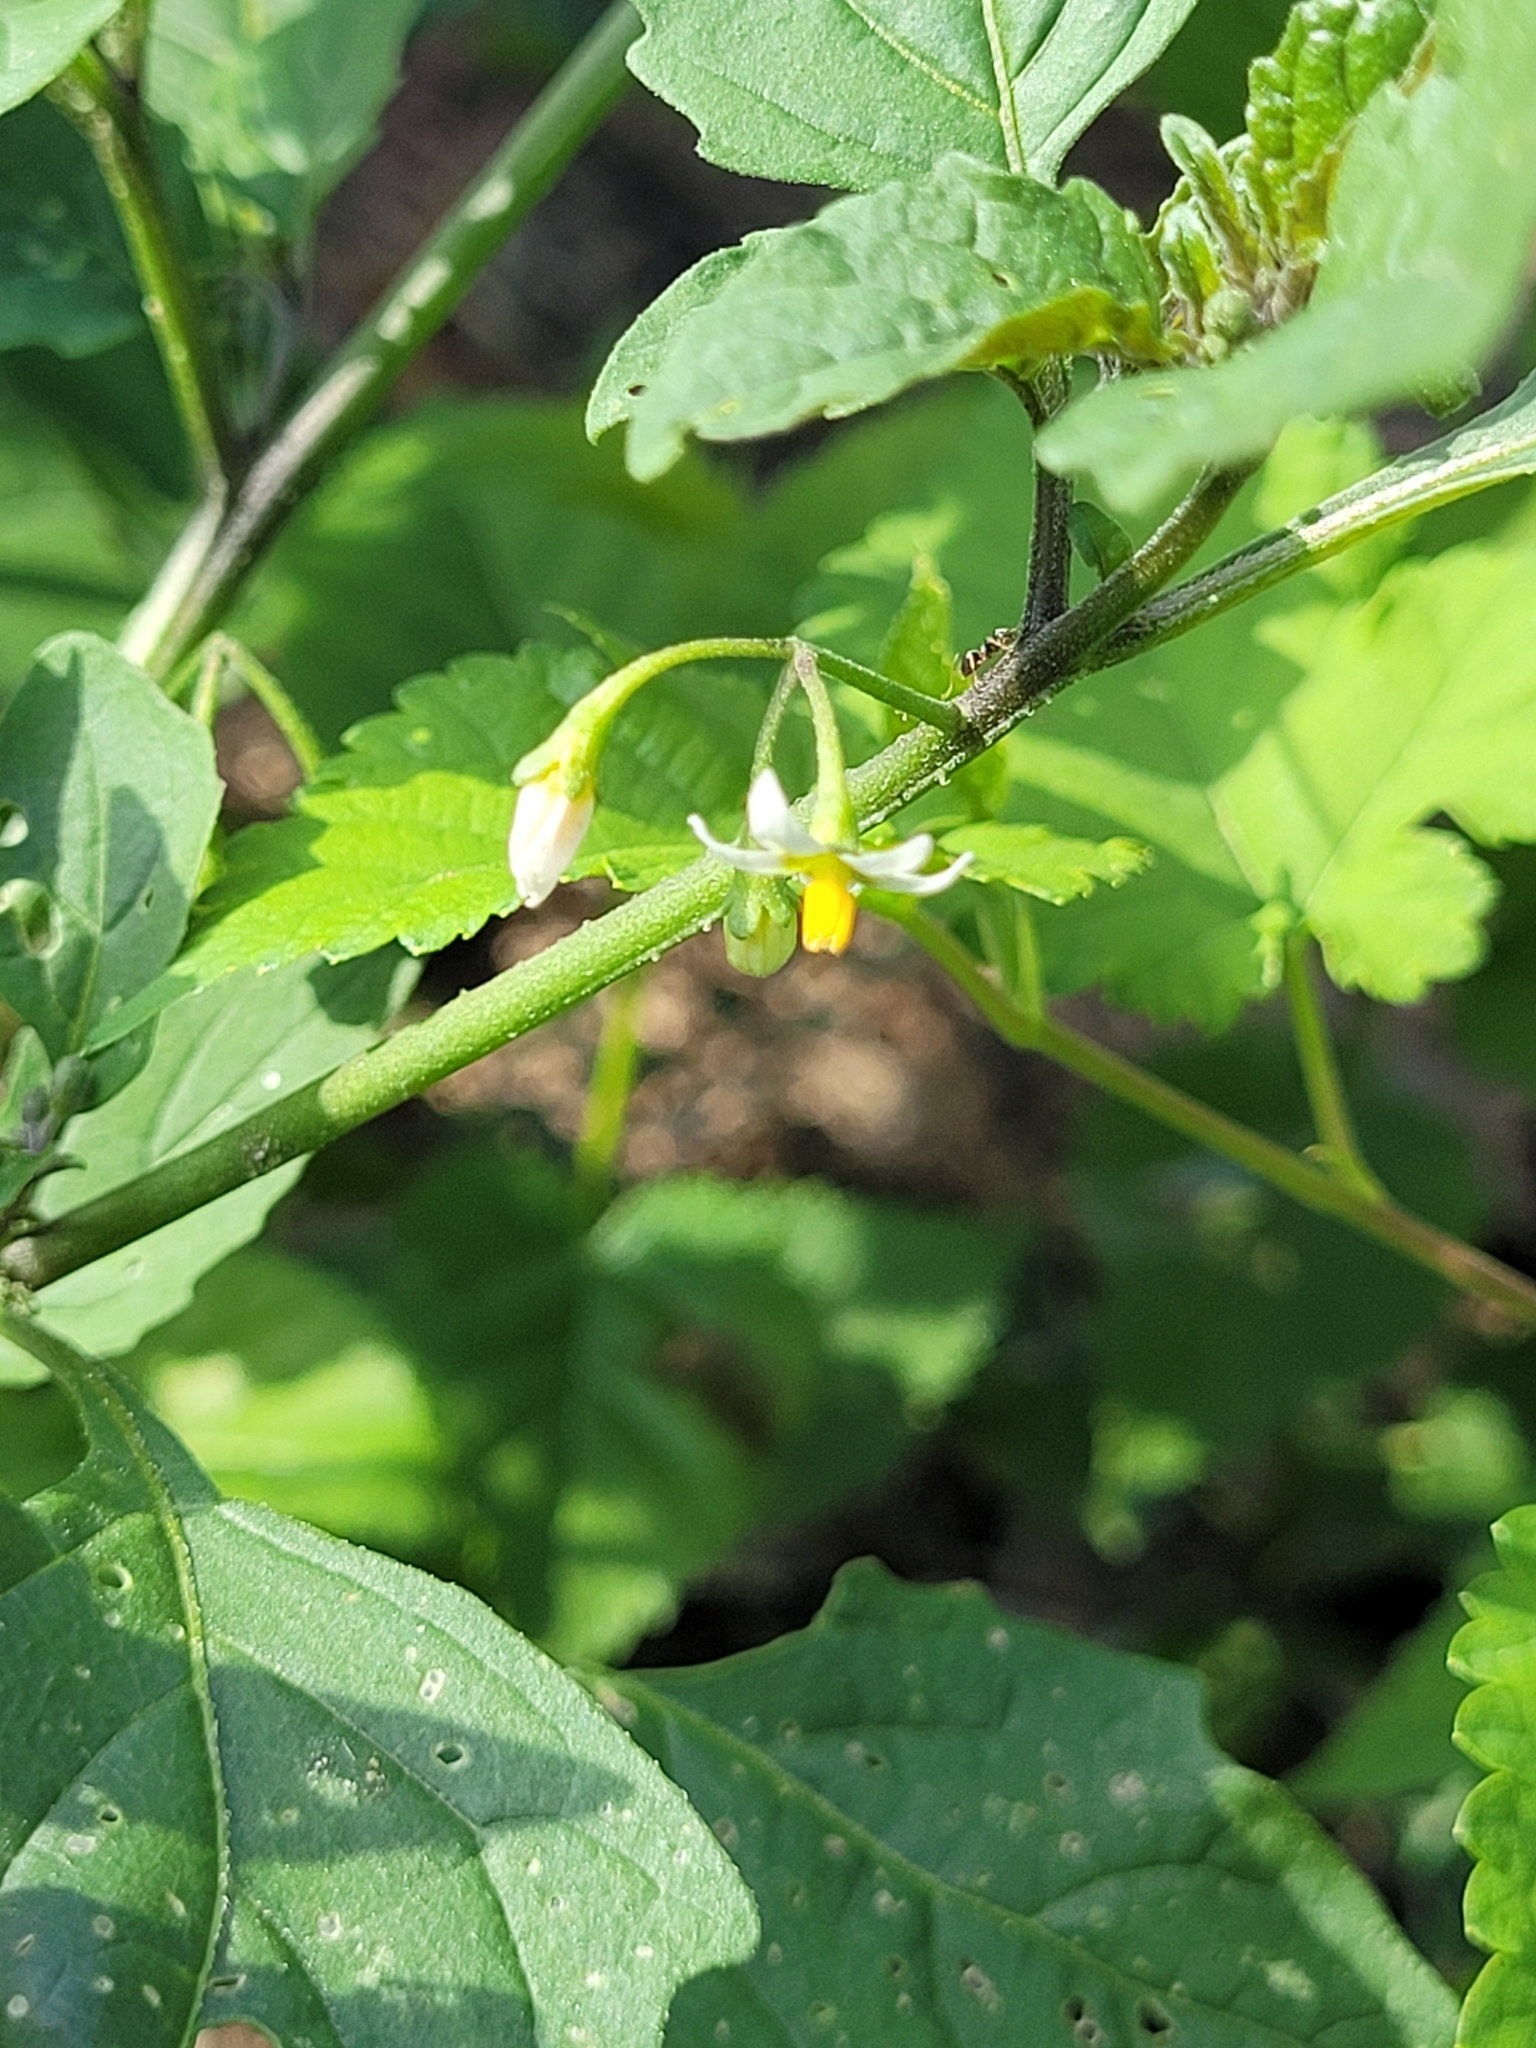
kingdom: Plantae
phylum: Tracheophyta
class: Magnoliopsida
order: Solanales
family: Solanaceae
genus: Solanum
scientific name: Solanum emulans
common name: Eastern black nightshade
